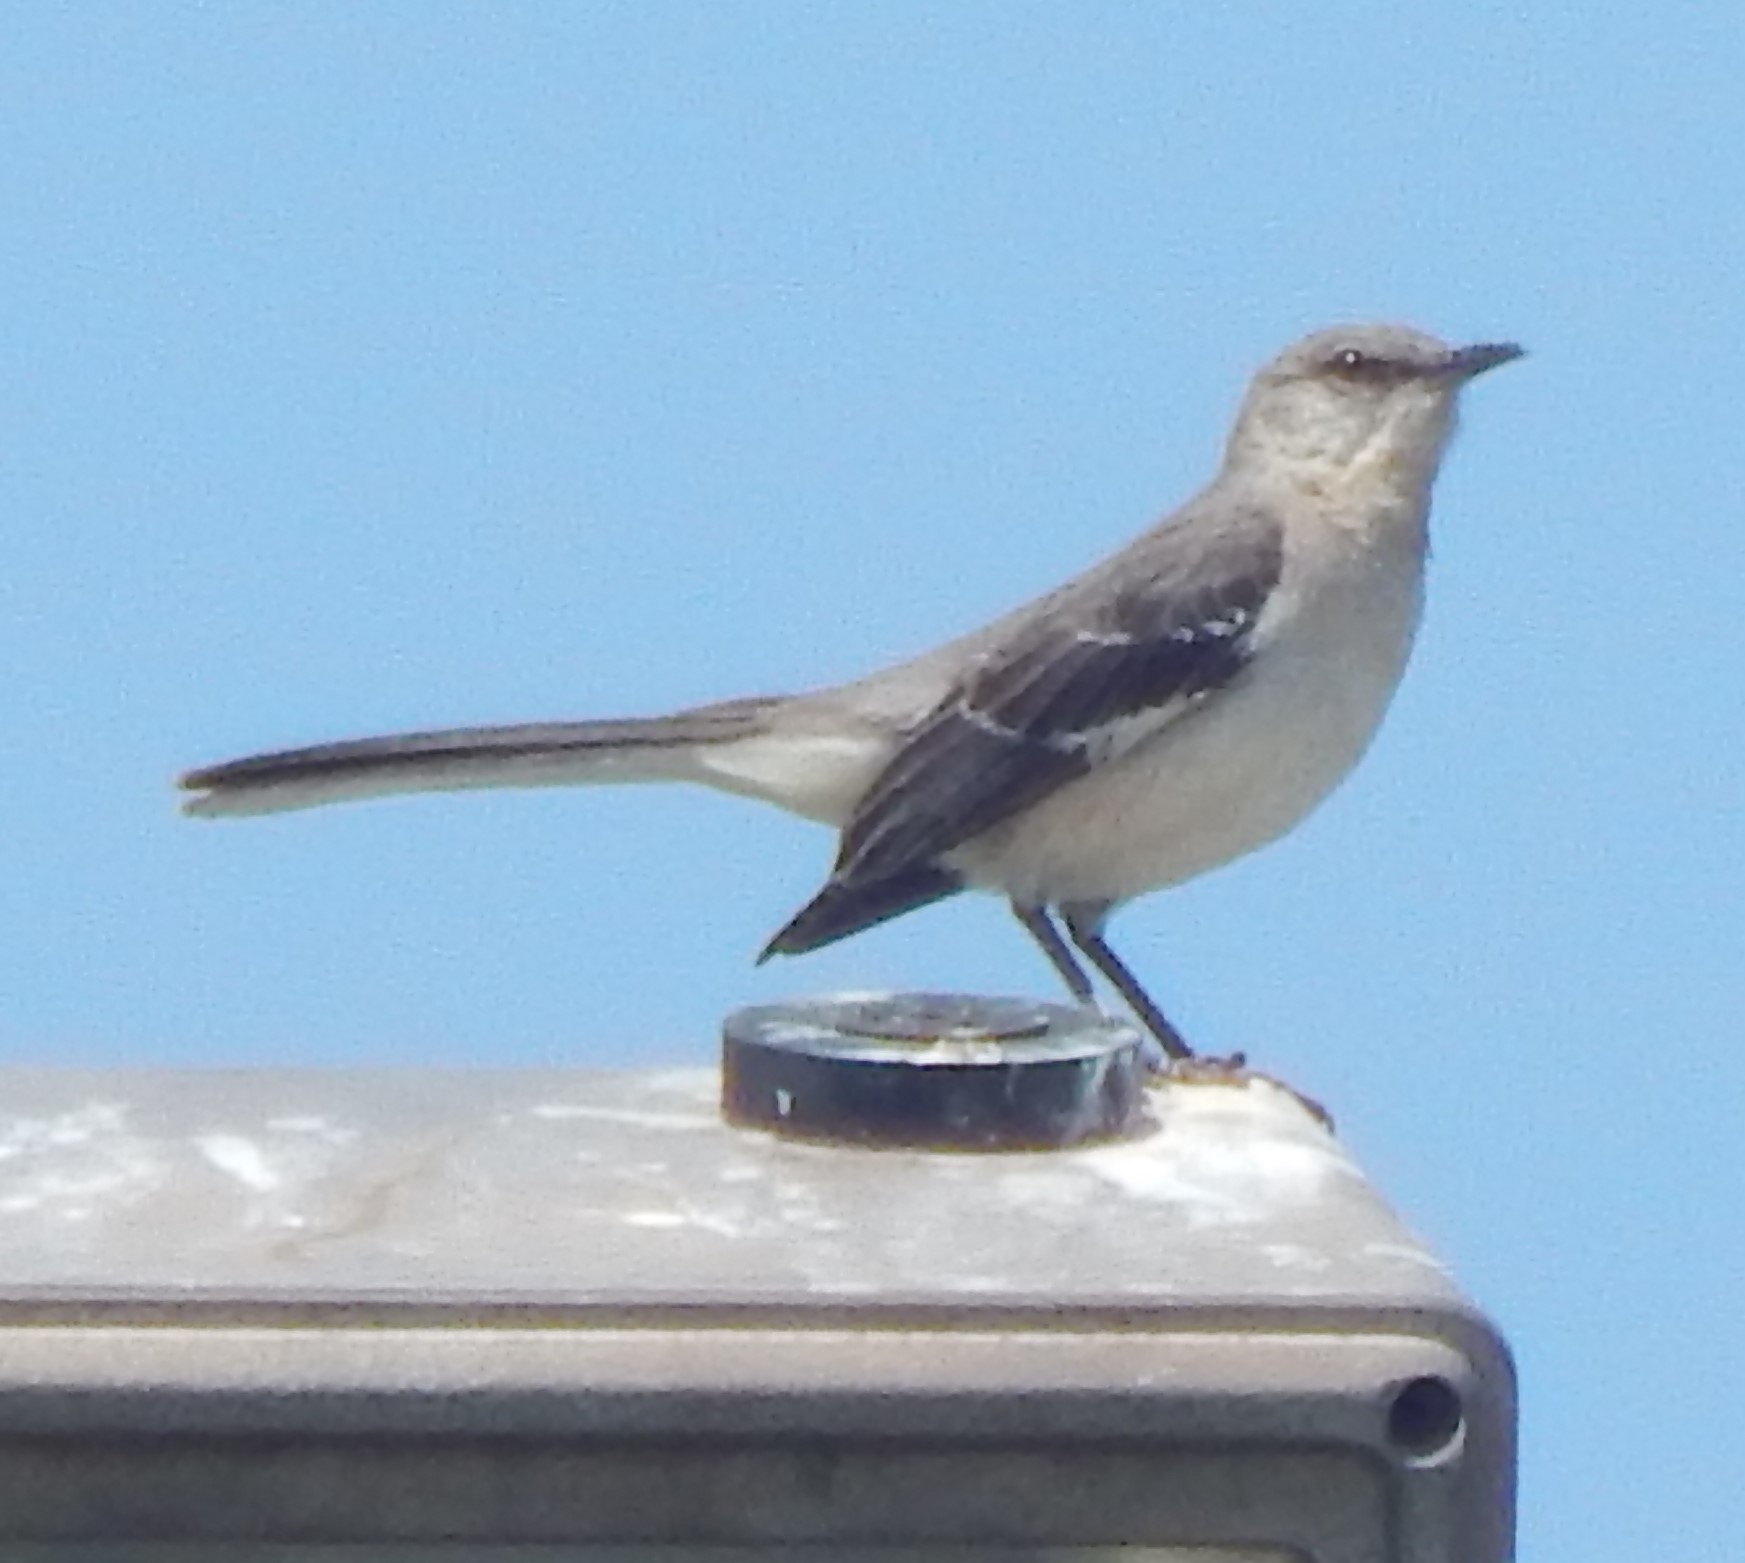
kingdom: Animalia
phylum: Chordata
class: Aves
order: Passeriformes
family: Mimidae
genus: Mimus
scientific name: Mimus polyglottos
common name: Northern mockingbird
